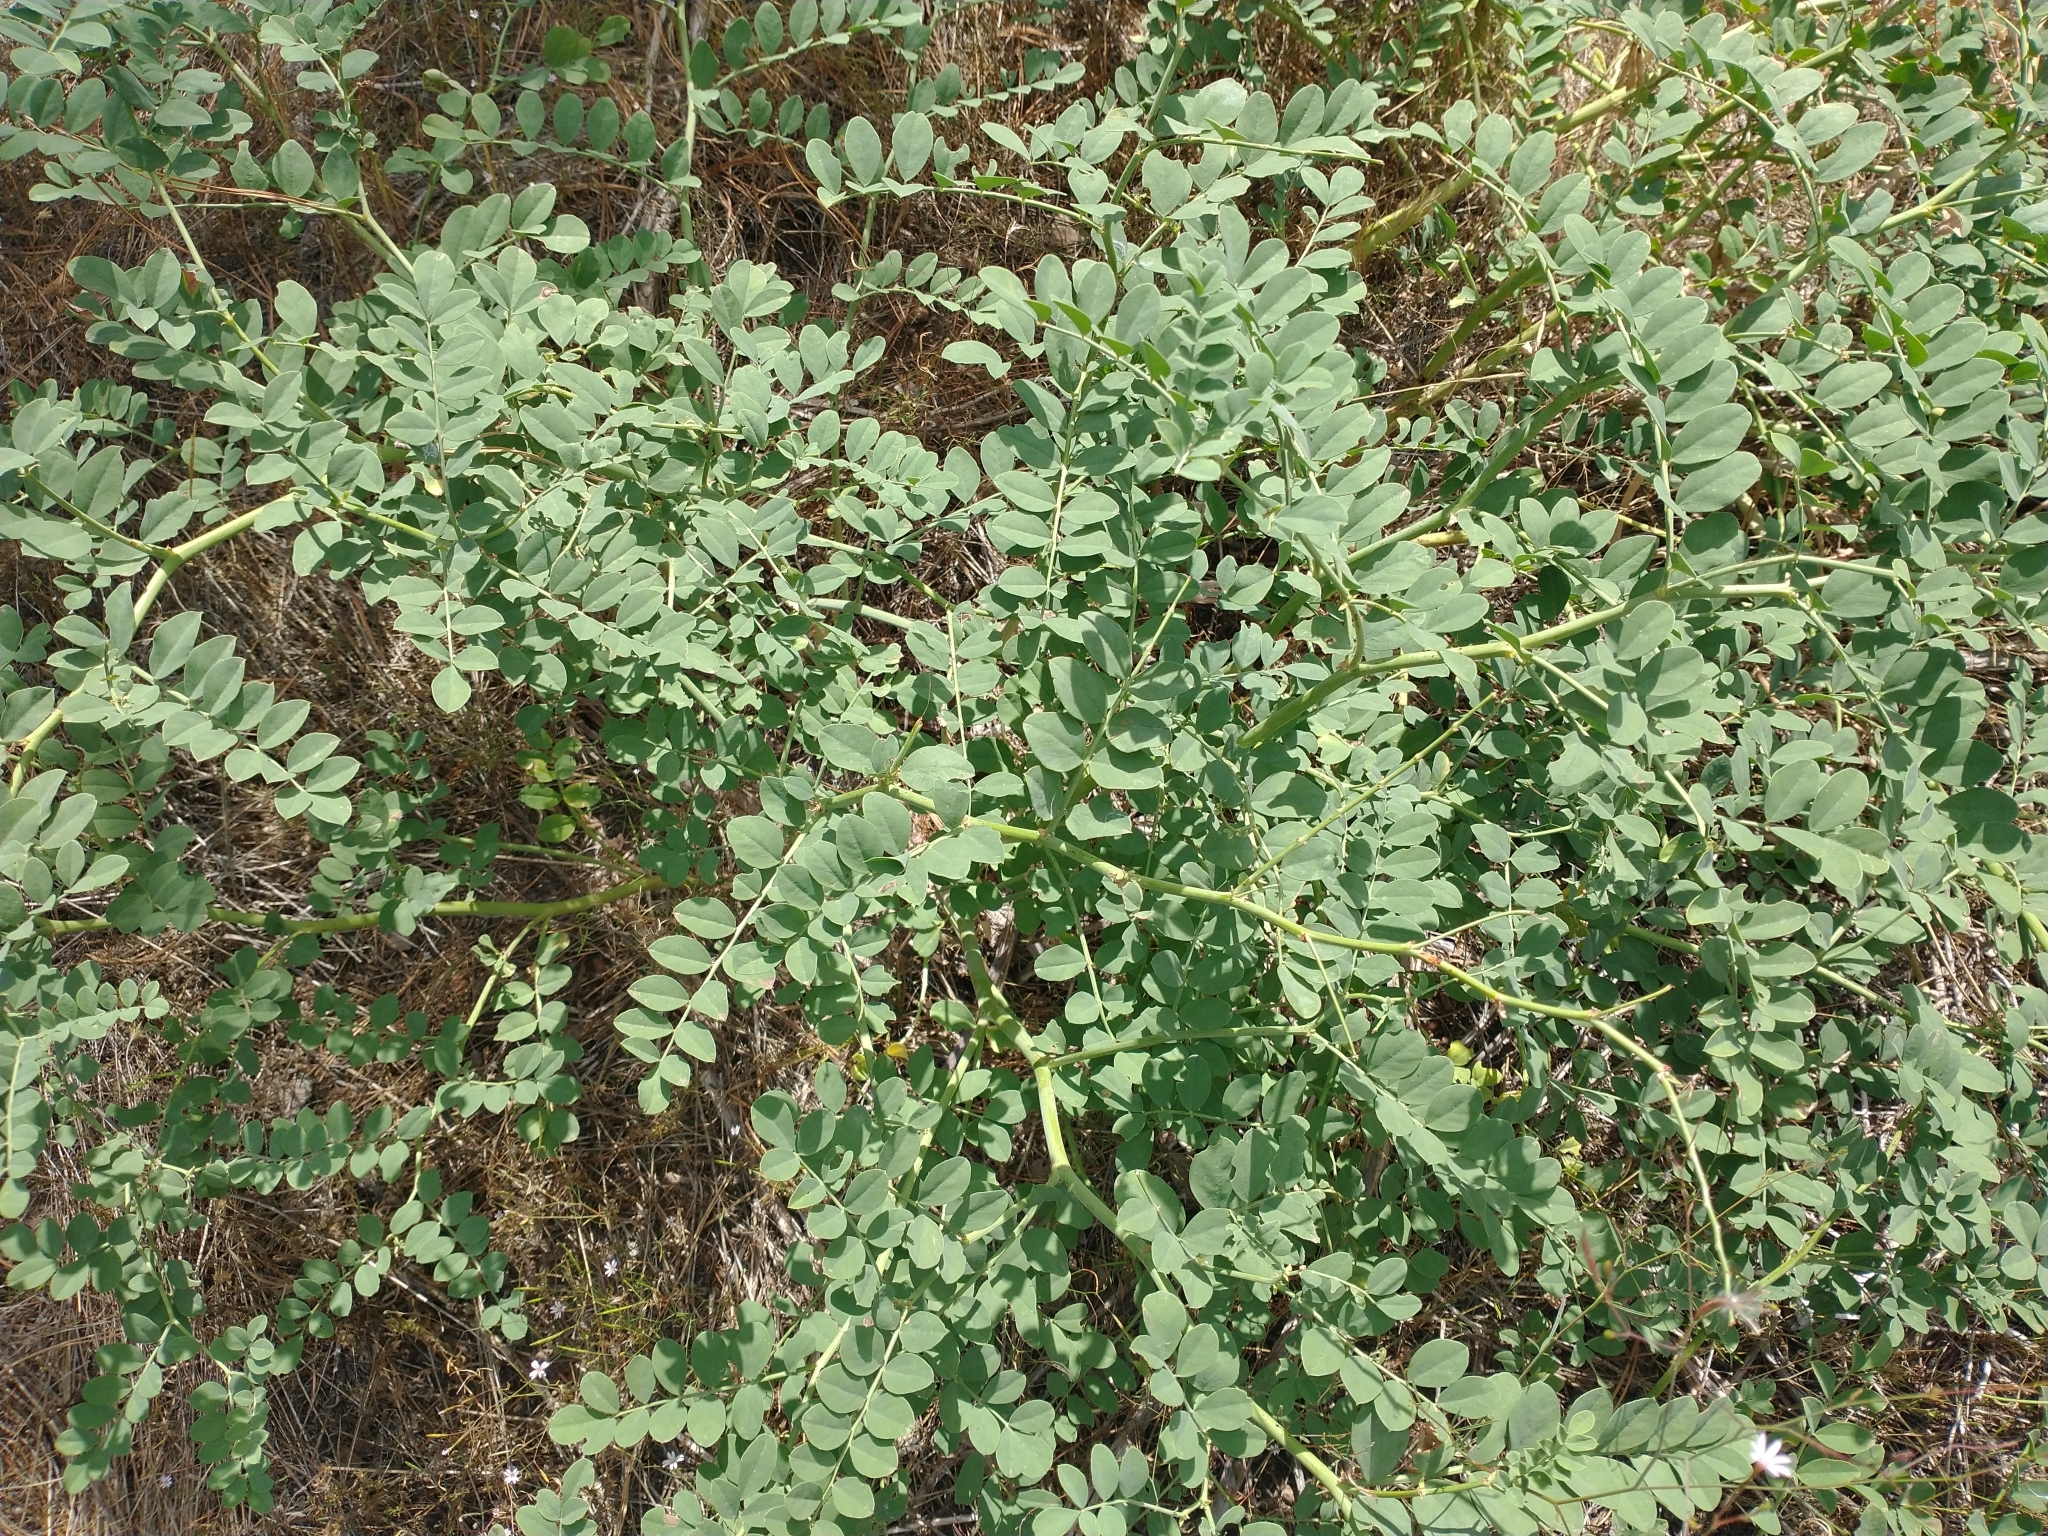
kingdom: Plantae
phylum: Tracheophyta
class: Magnoliopsida
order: Fabales
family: Fabaceae
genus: Hosackia
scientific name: Hosackia crassifolia
